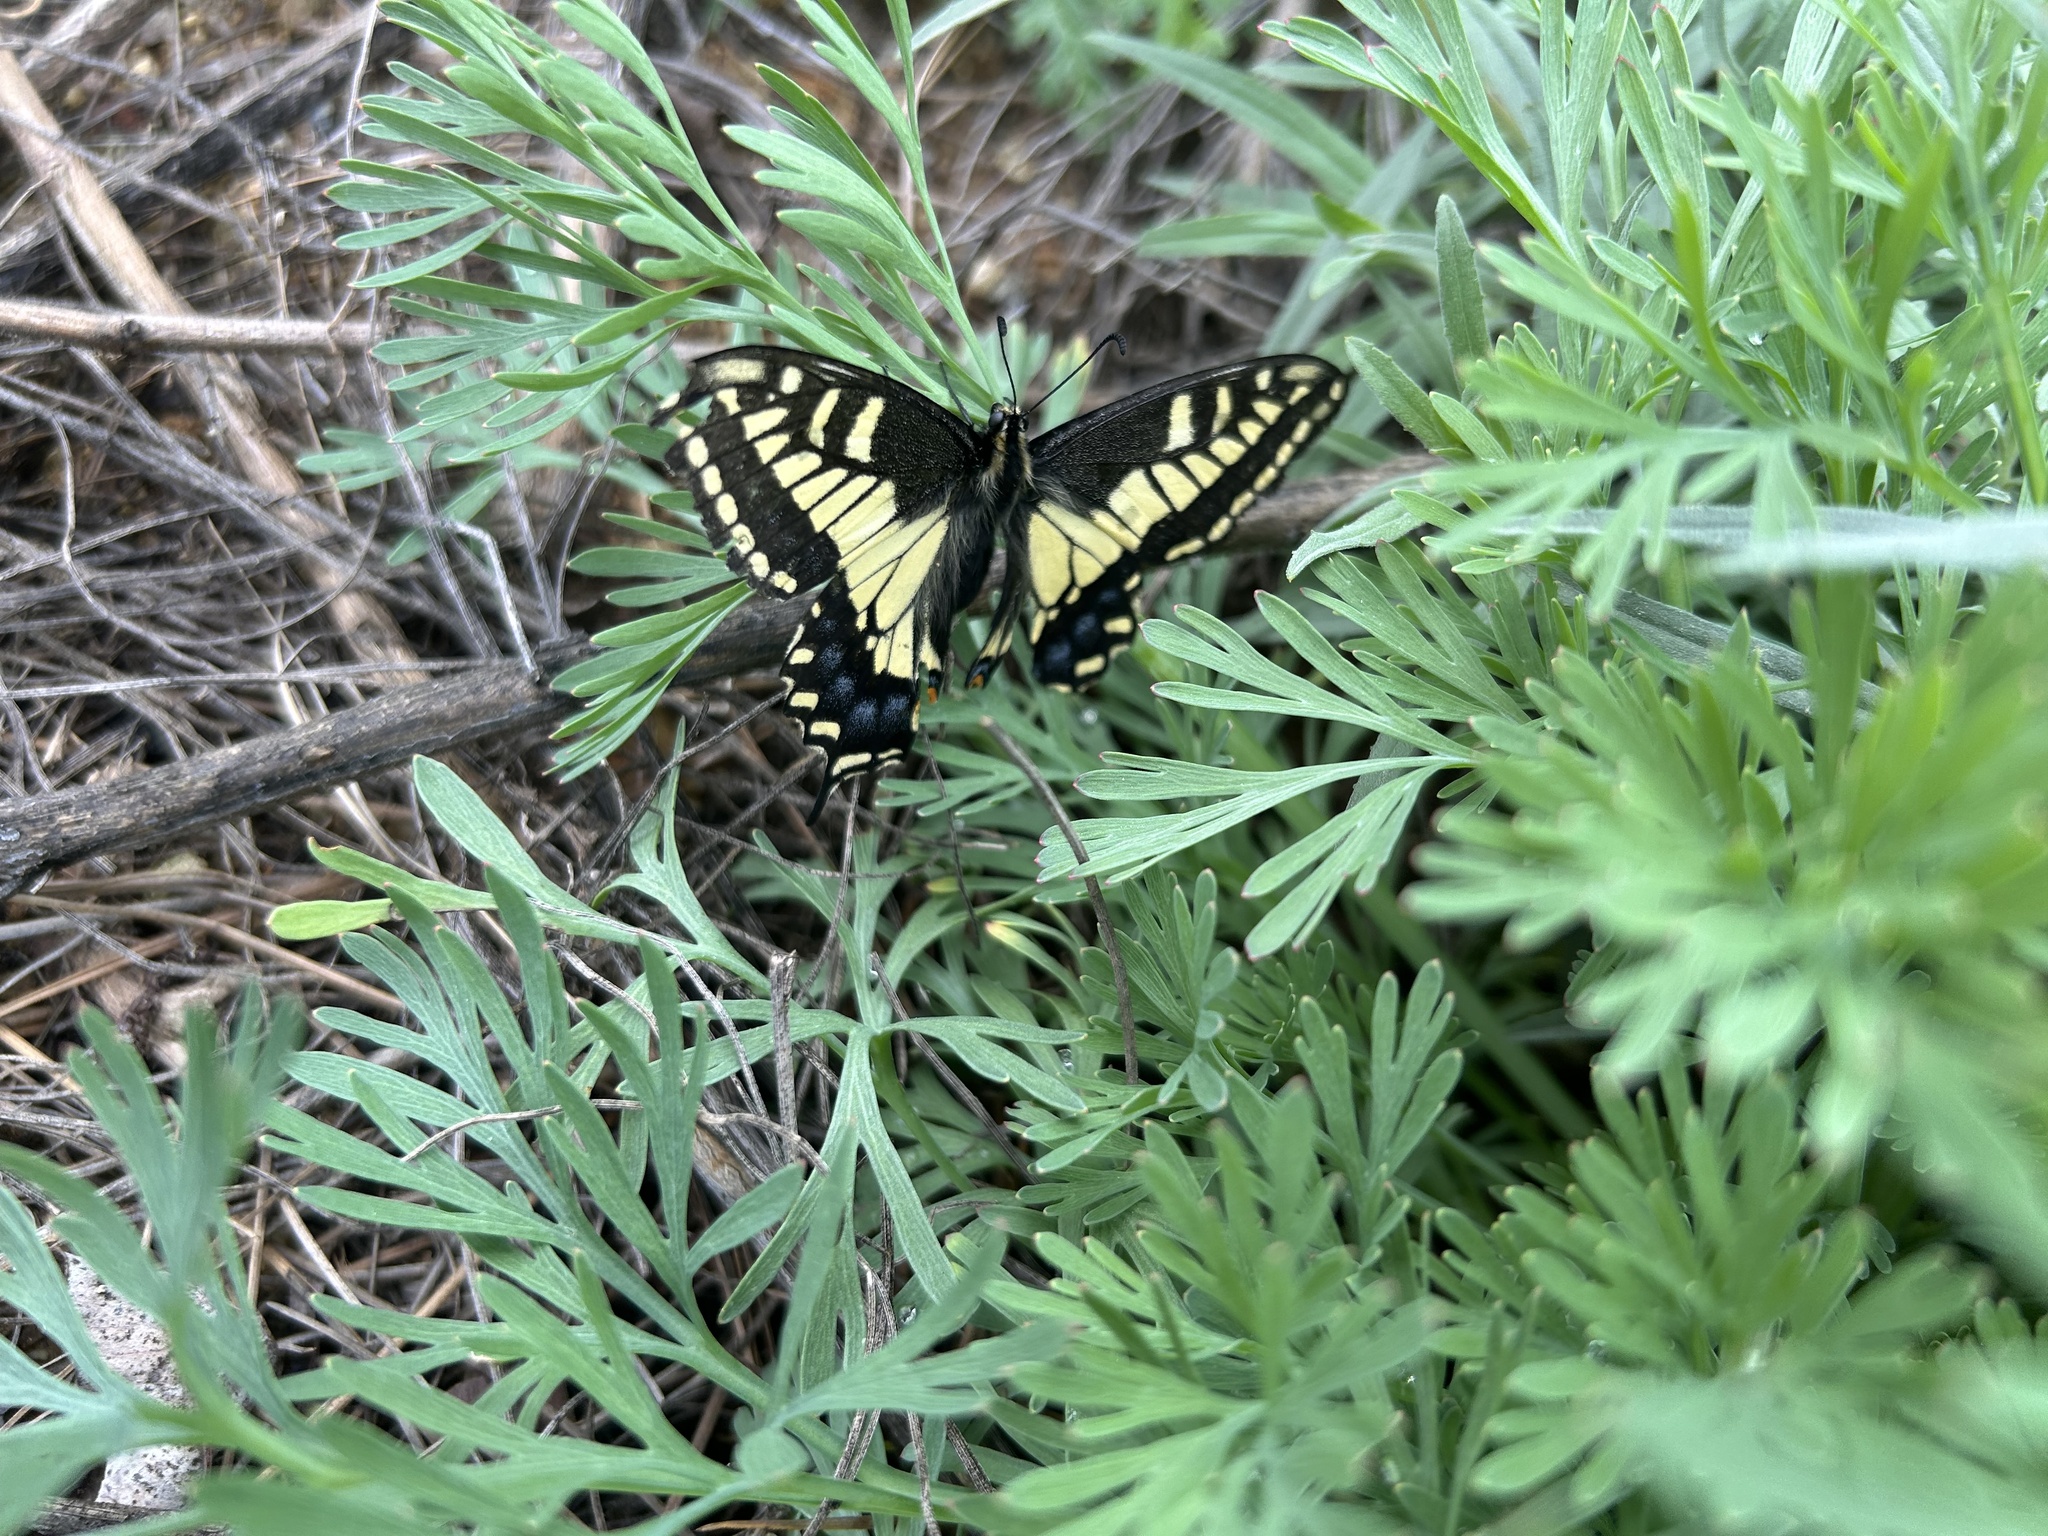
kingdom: Animalia
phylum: Arthropoda
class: Insecta
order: Lepidoptera
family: Papilionidae
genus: Papilio
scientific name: Papilio zelicaon
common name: Anise swallowtail
